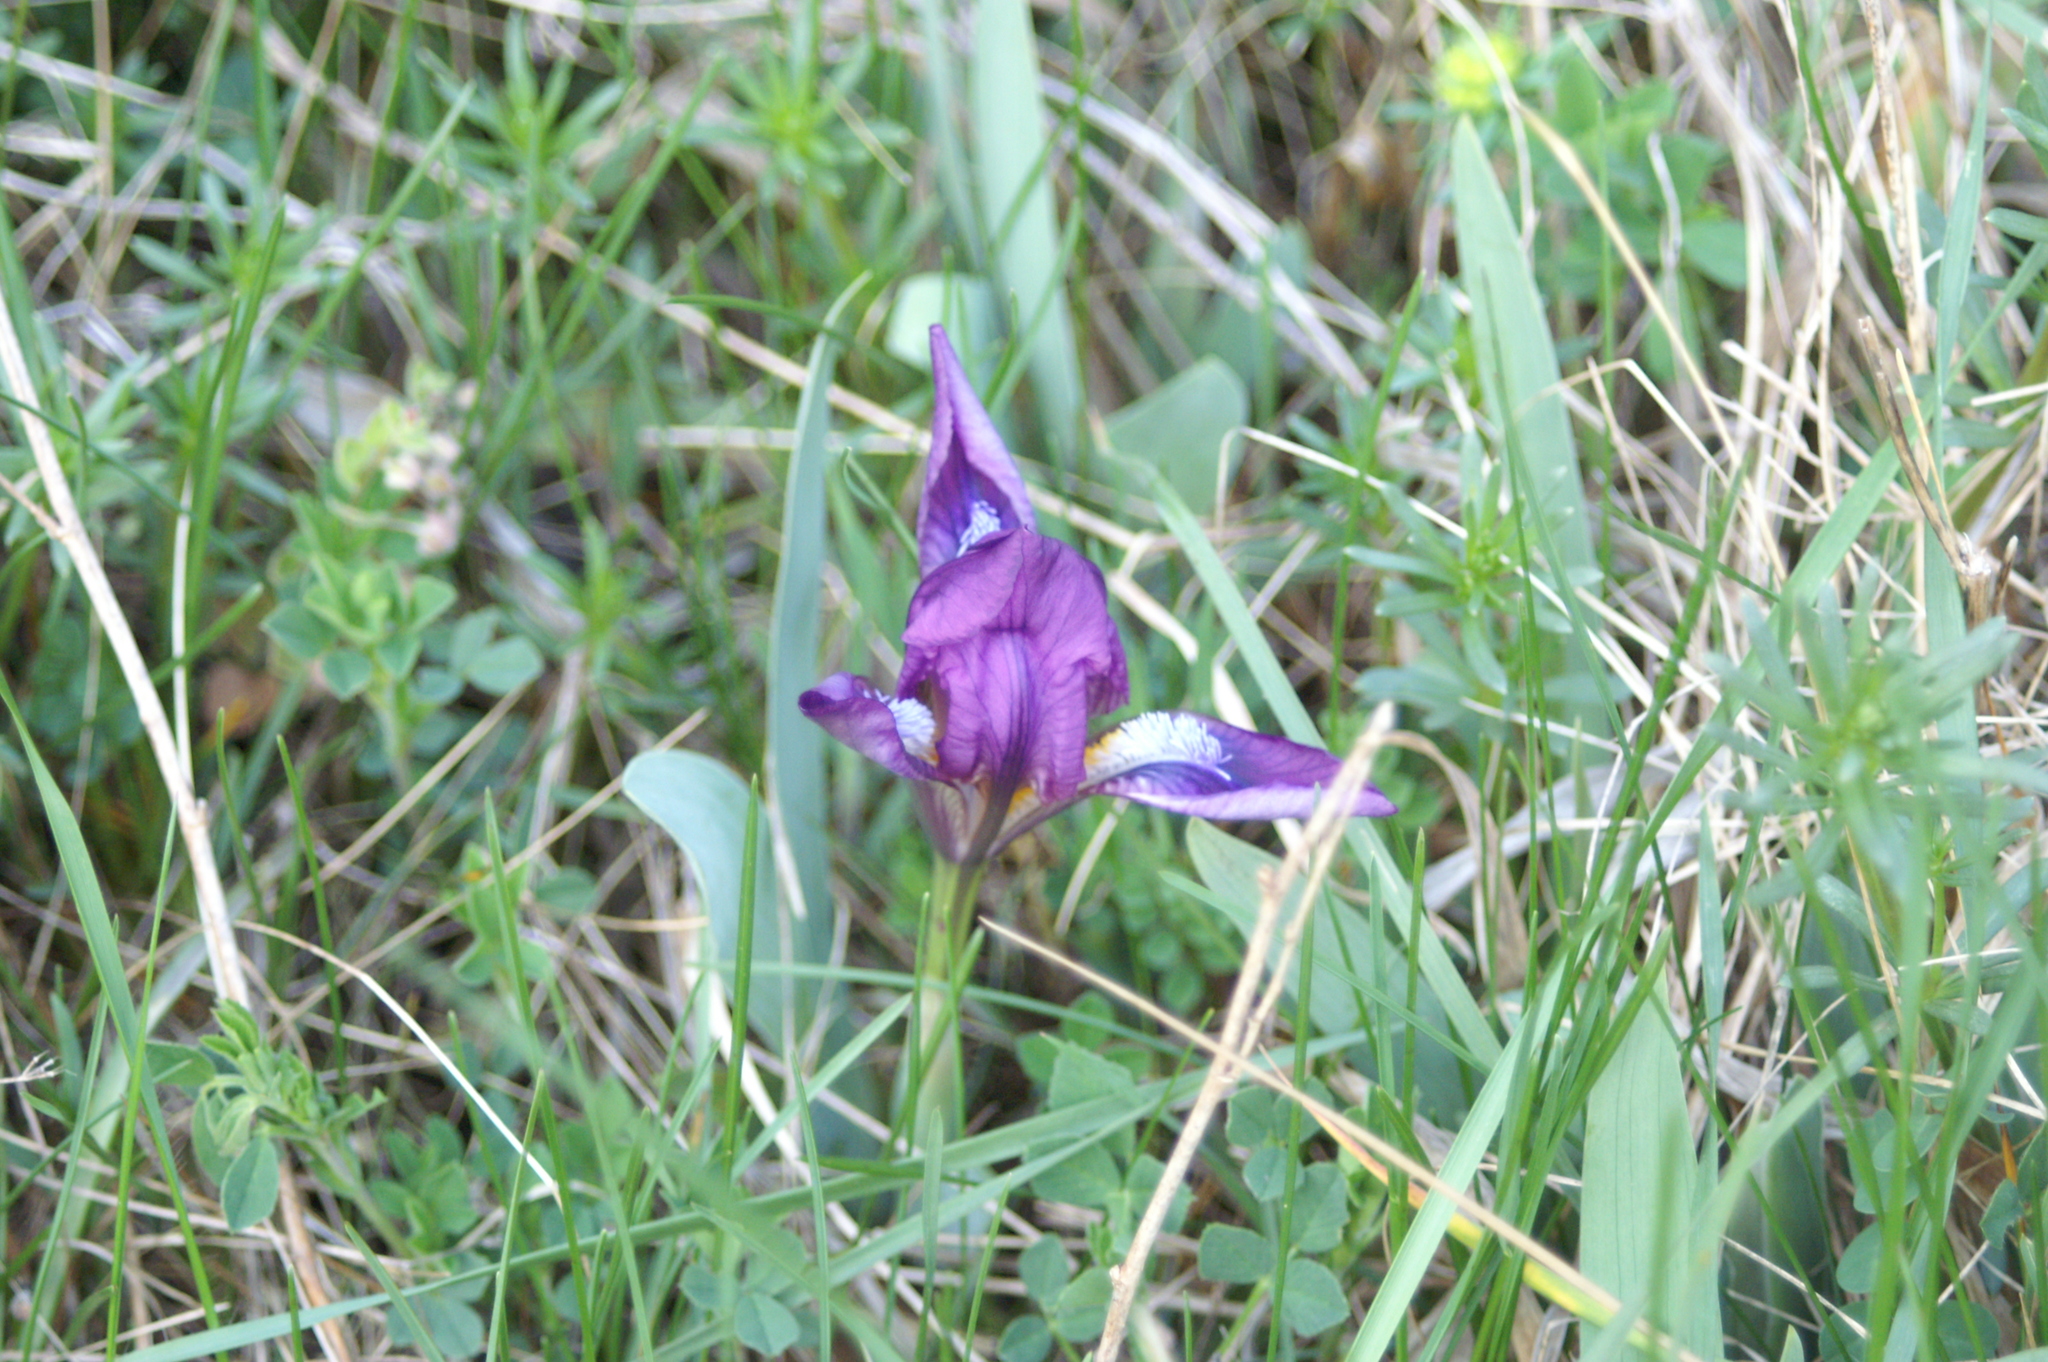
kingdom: Plantae
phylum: Tracheophyta
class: Liliopsida
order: Asparagales
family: Iridaceae
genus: Iris
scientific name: Iris pumila
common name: Dwarf iris
